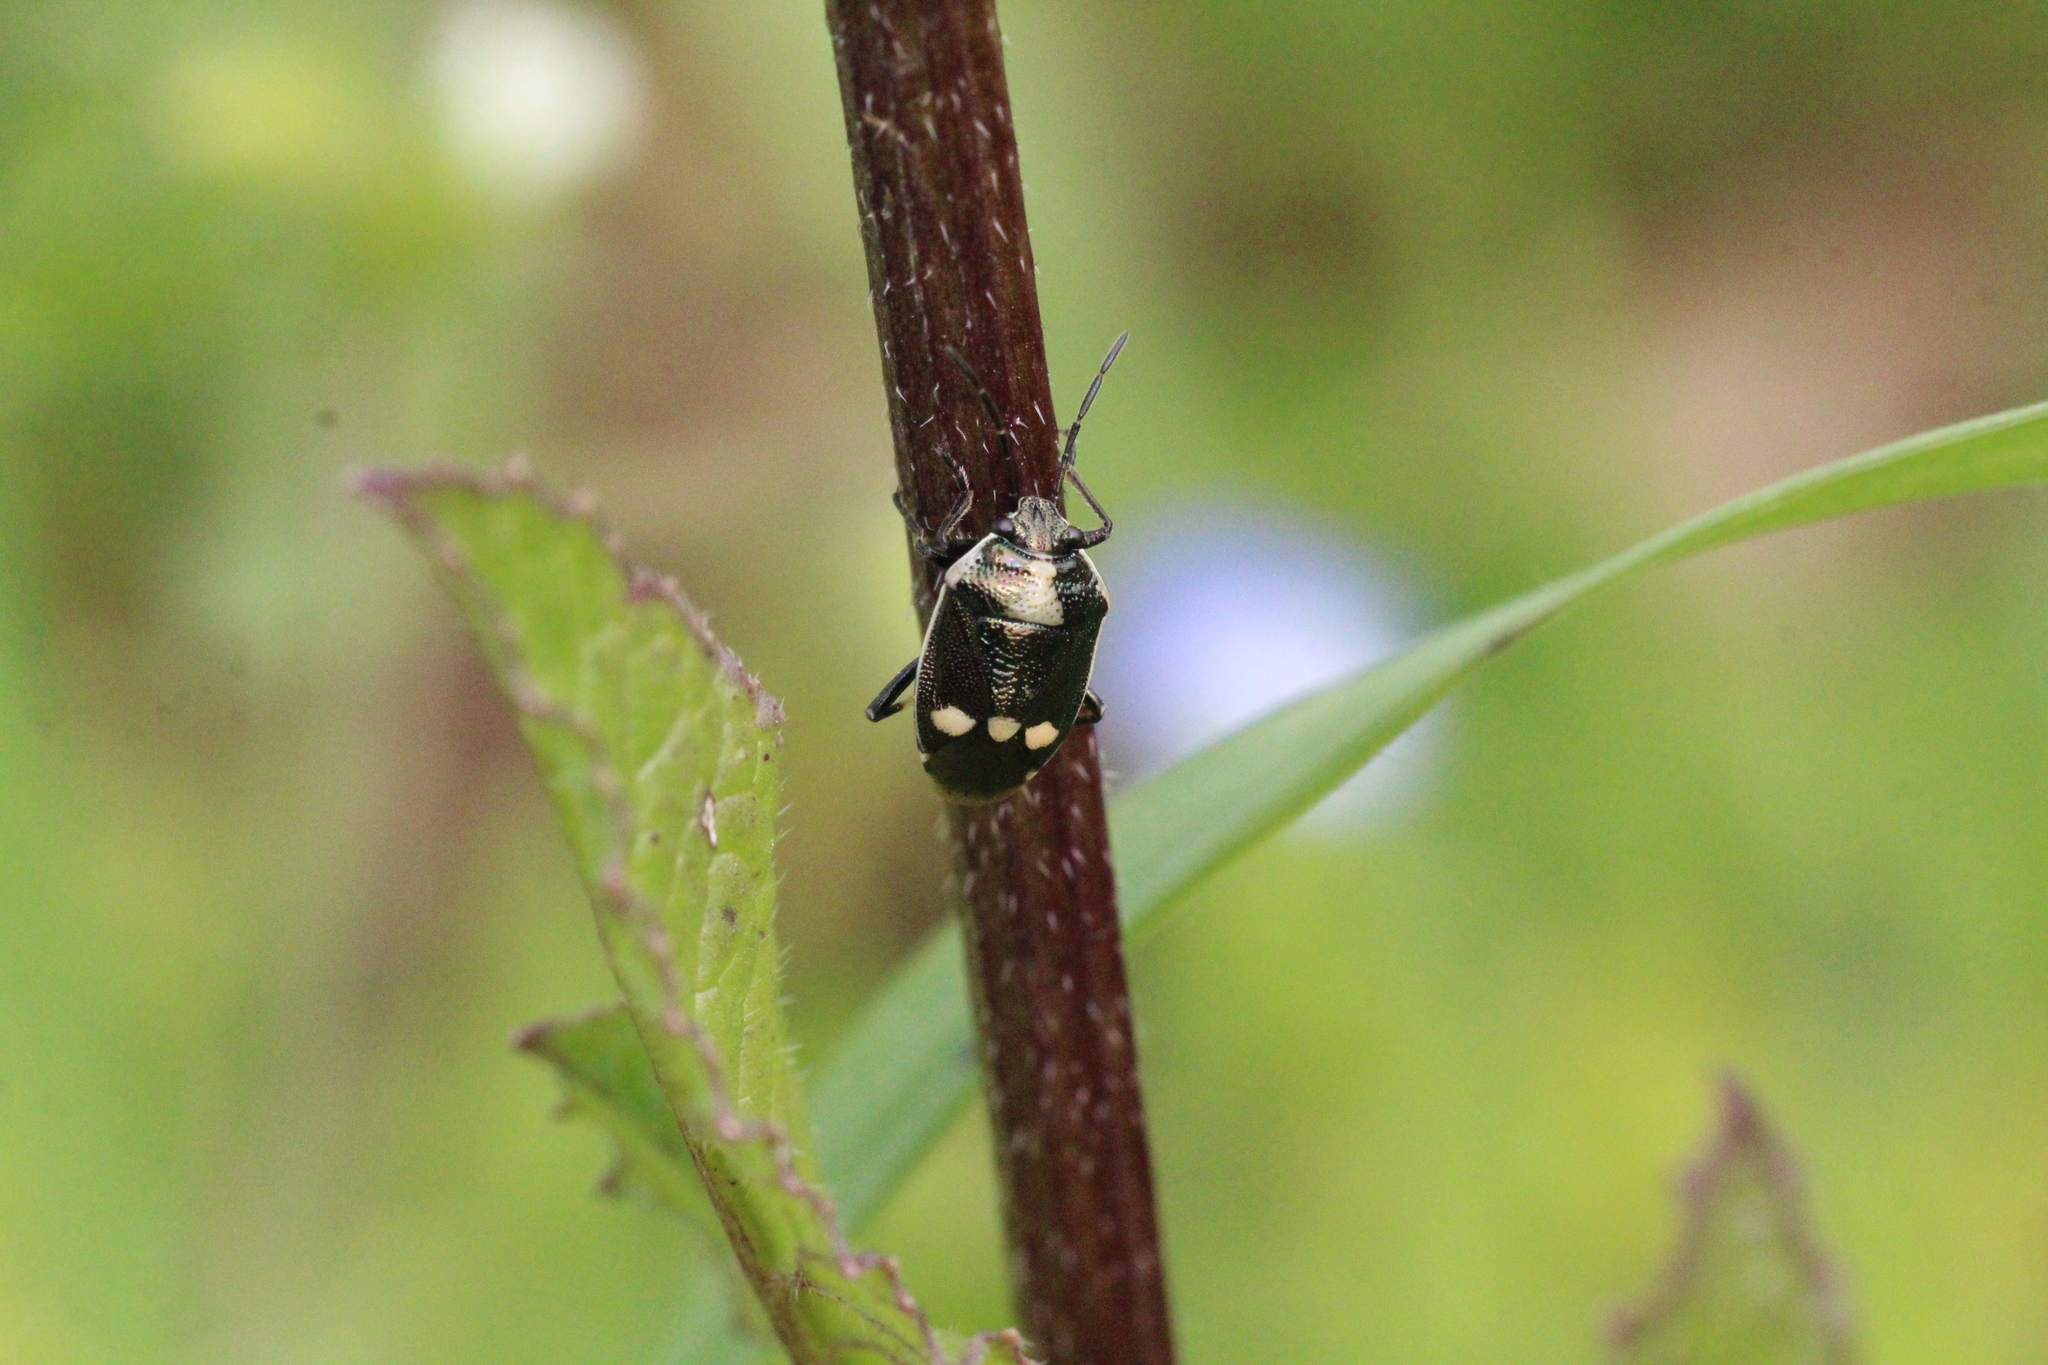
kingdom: Animalia
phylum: Arthropoda
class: Insecta
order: Hemiptera
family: Pentatomidae
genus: Eurydema
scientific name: Eurydema oleracea
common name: Cabbage bug
